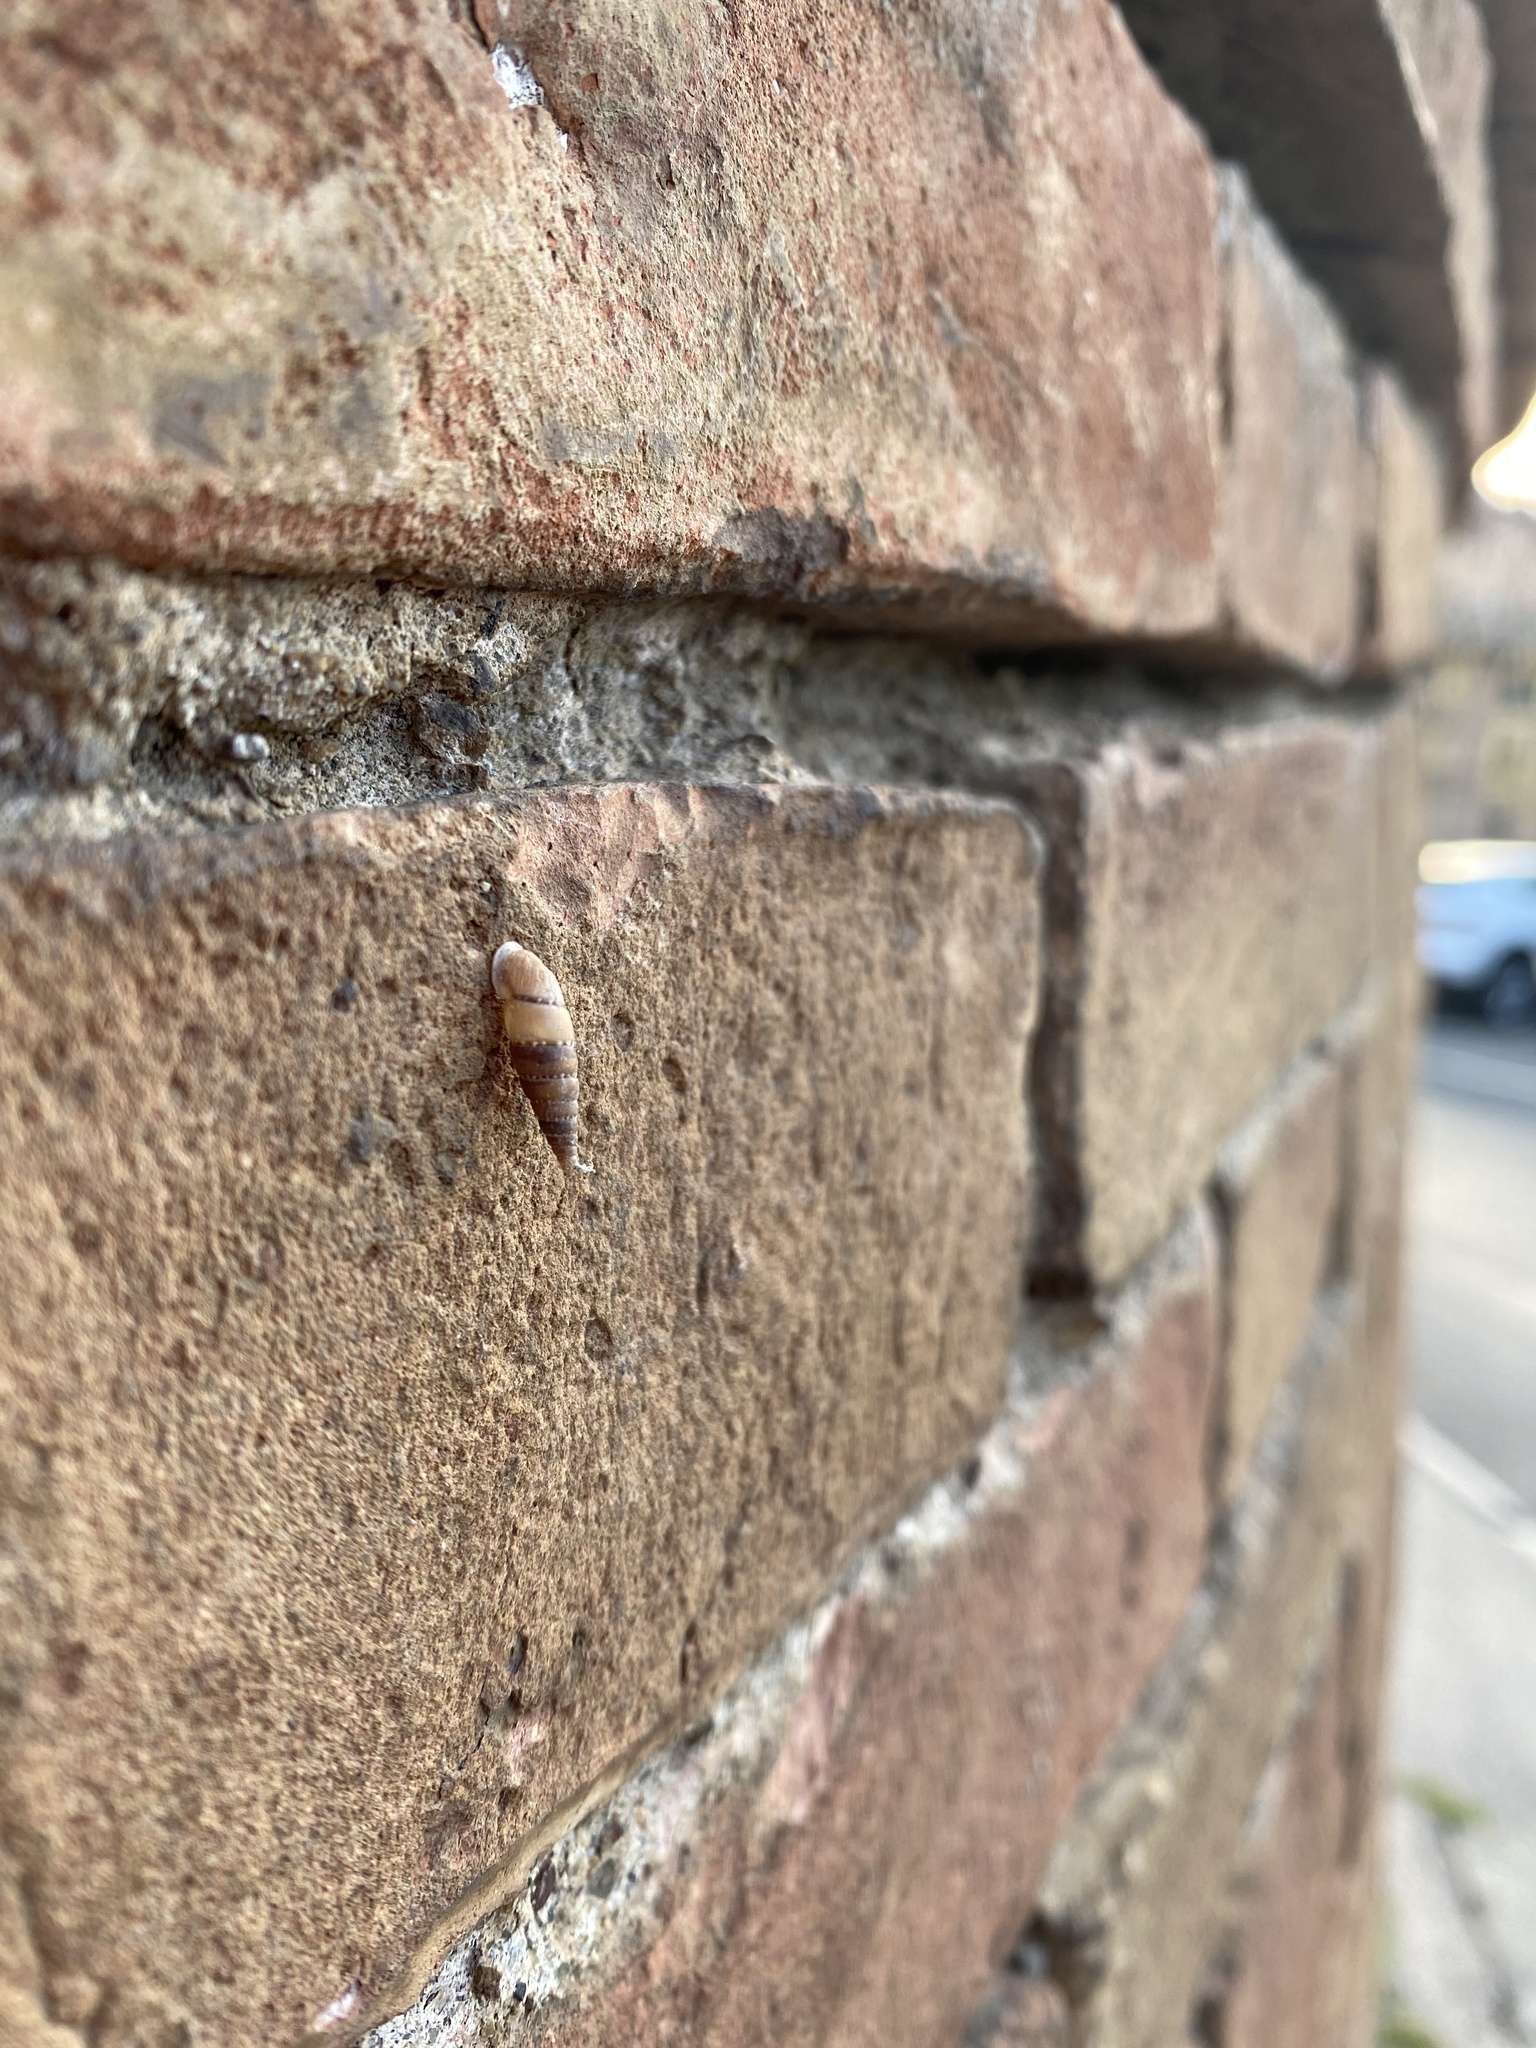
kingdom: Animalia
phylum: Mollusca
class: Gastropoda
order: Stylommatophora
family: Clausiliidae
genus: Papillifera
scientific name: Papillifera papillaris
